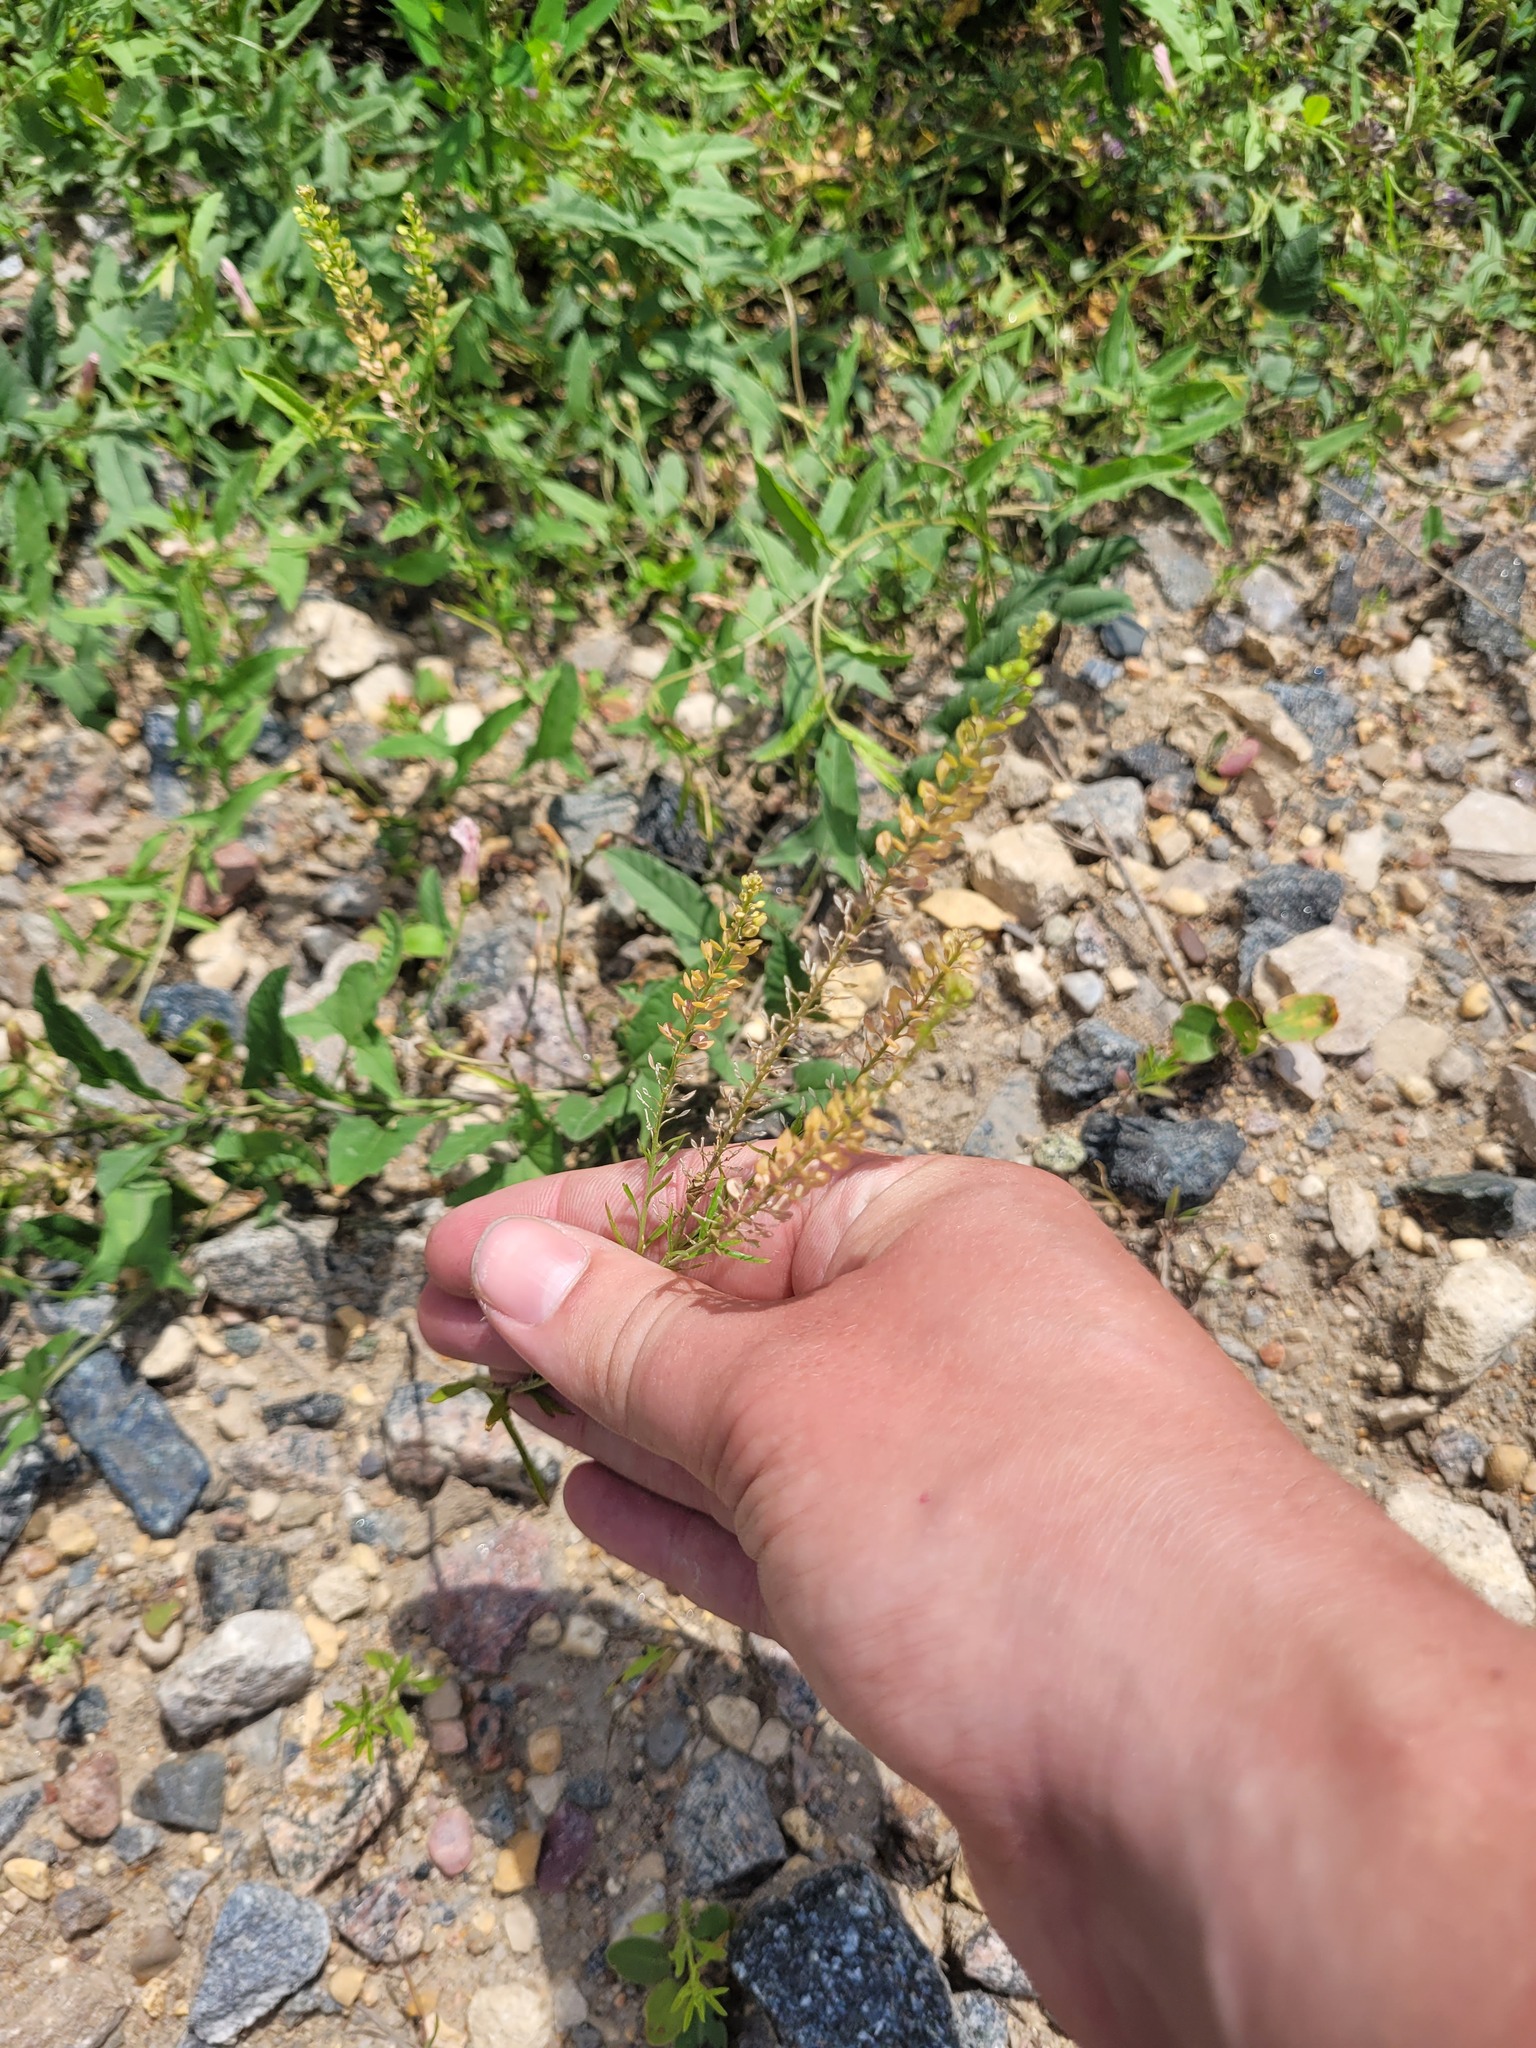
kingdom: Plantae
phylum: Tracheophyta
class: Magnoliopsida
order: Brassicales
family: Brassicaceae
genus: Lepidium
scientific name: Lepidium densiflorum
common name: Miner's pepperwort
